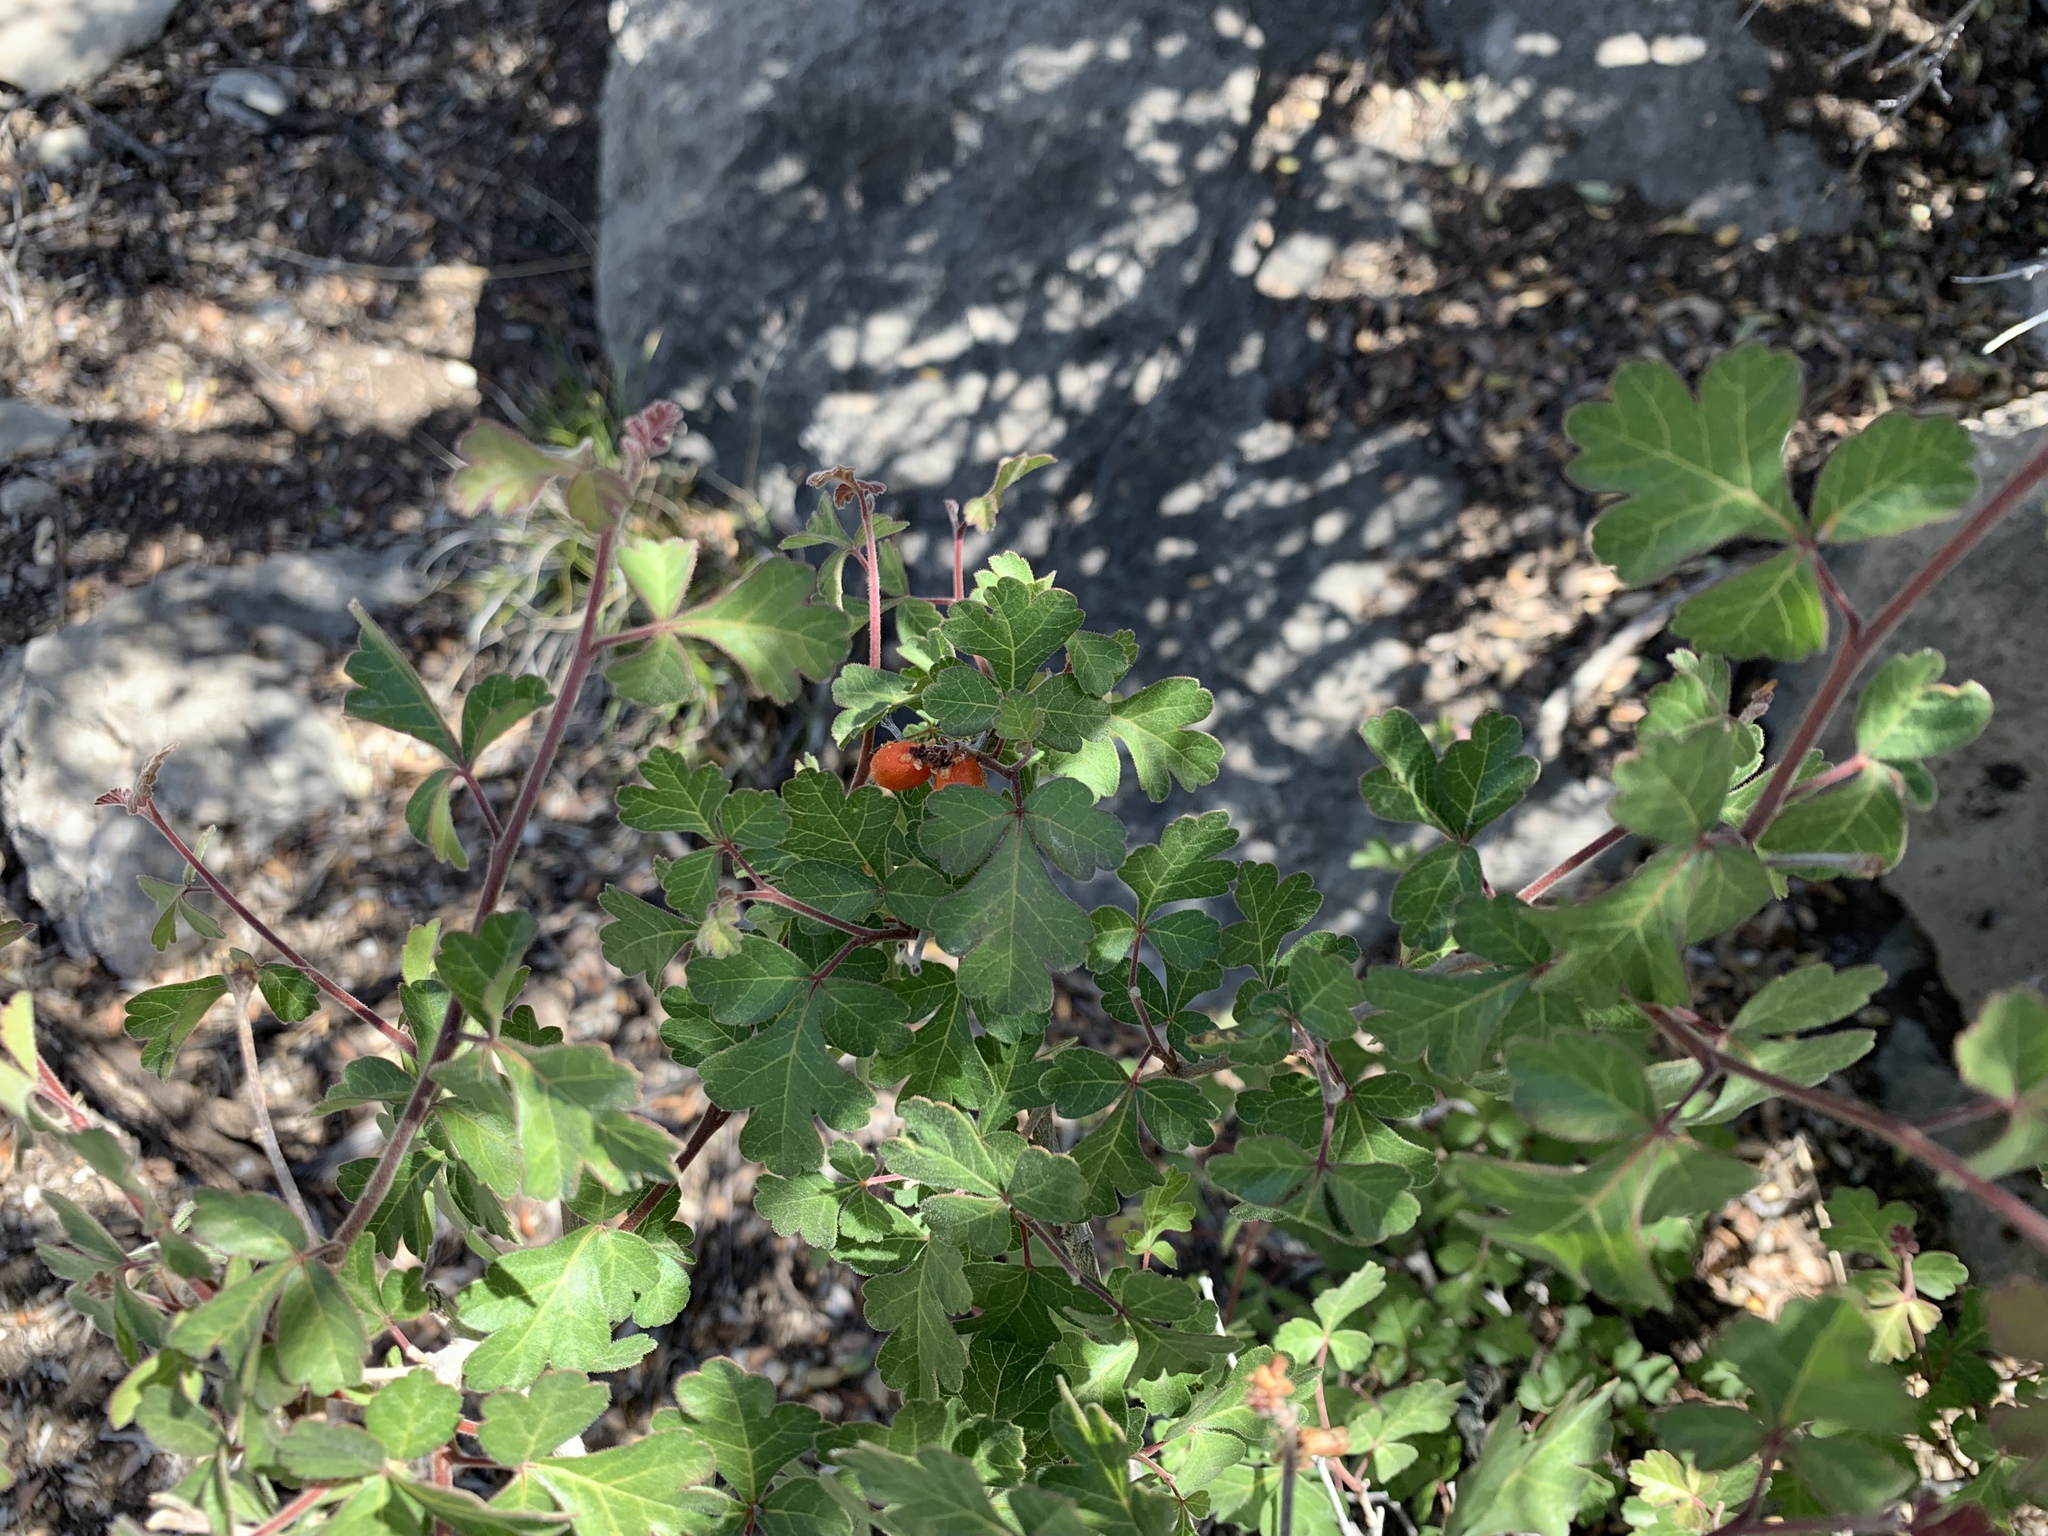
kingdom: Plantae
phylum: Tracheophyta
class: Magnoliopsida
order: Sapindales
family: Anacardiaceae
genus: Rhus
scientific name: Rhus aromatica
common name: Aromatic sumac
